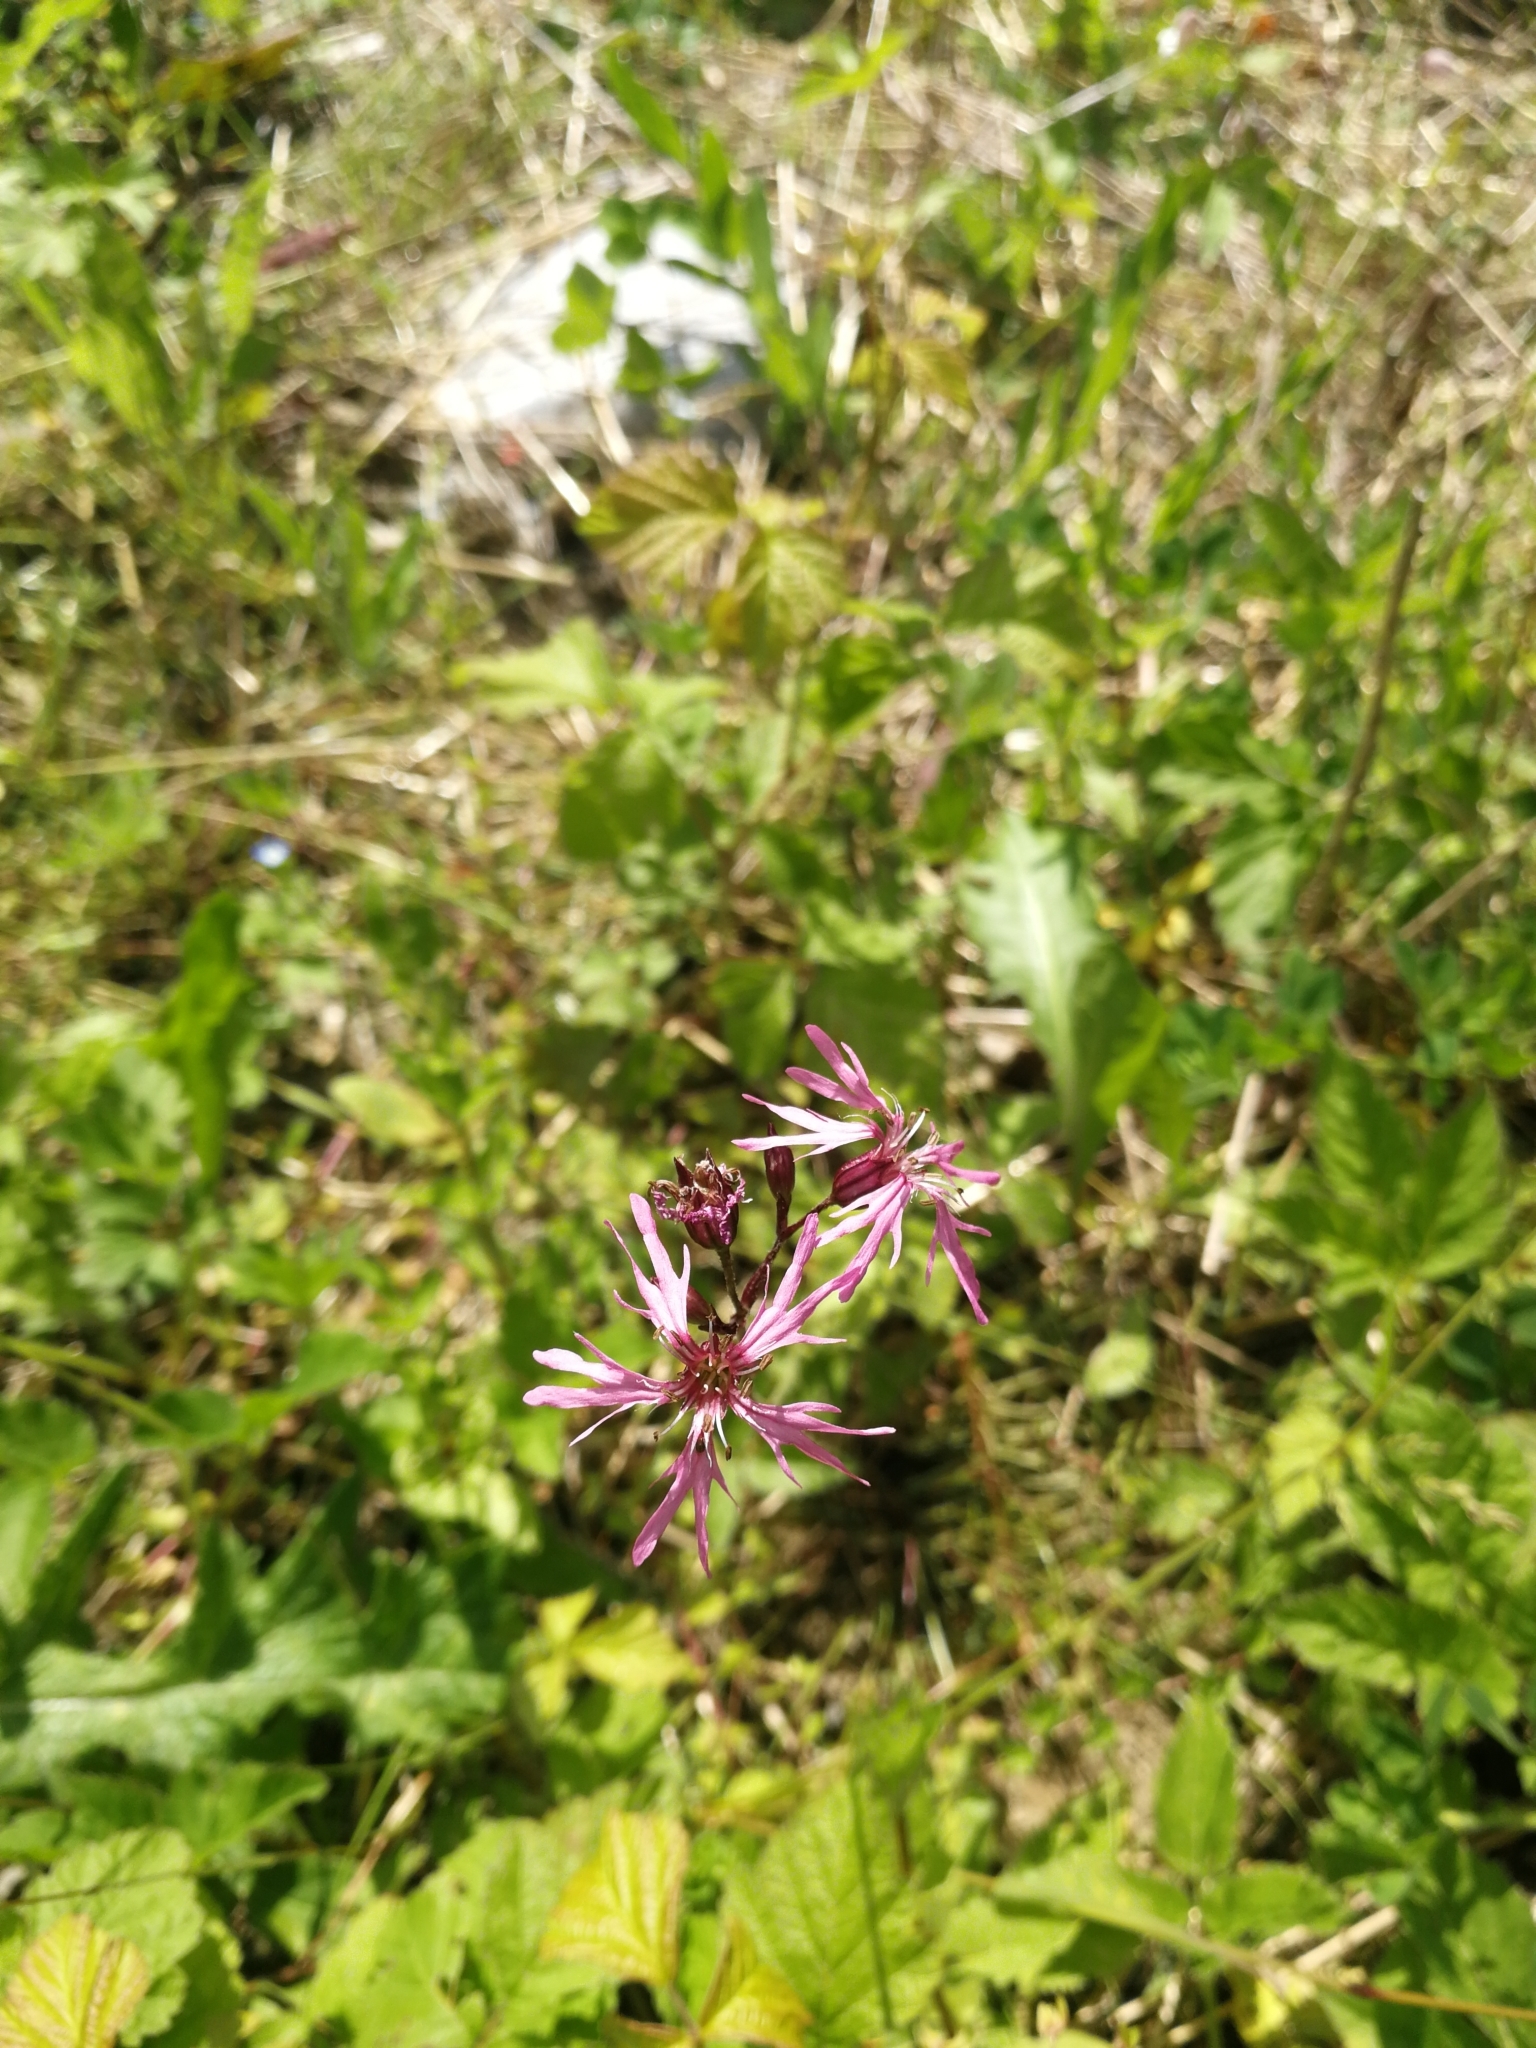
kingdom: Plantae
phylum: Tracheophyta
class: Magnoliopsida
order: Caryophyllales
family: Caryophyllaceae
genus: Silene
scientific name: Silene flos-cuculi
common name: Ragged-robin
